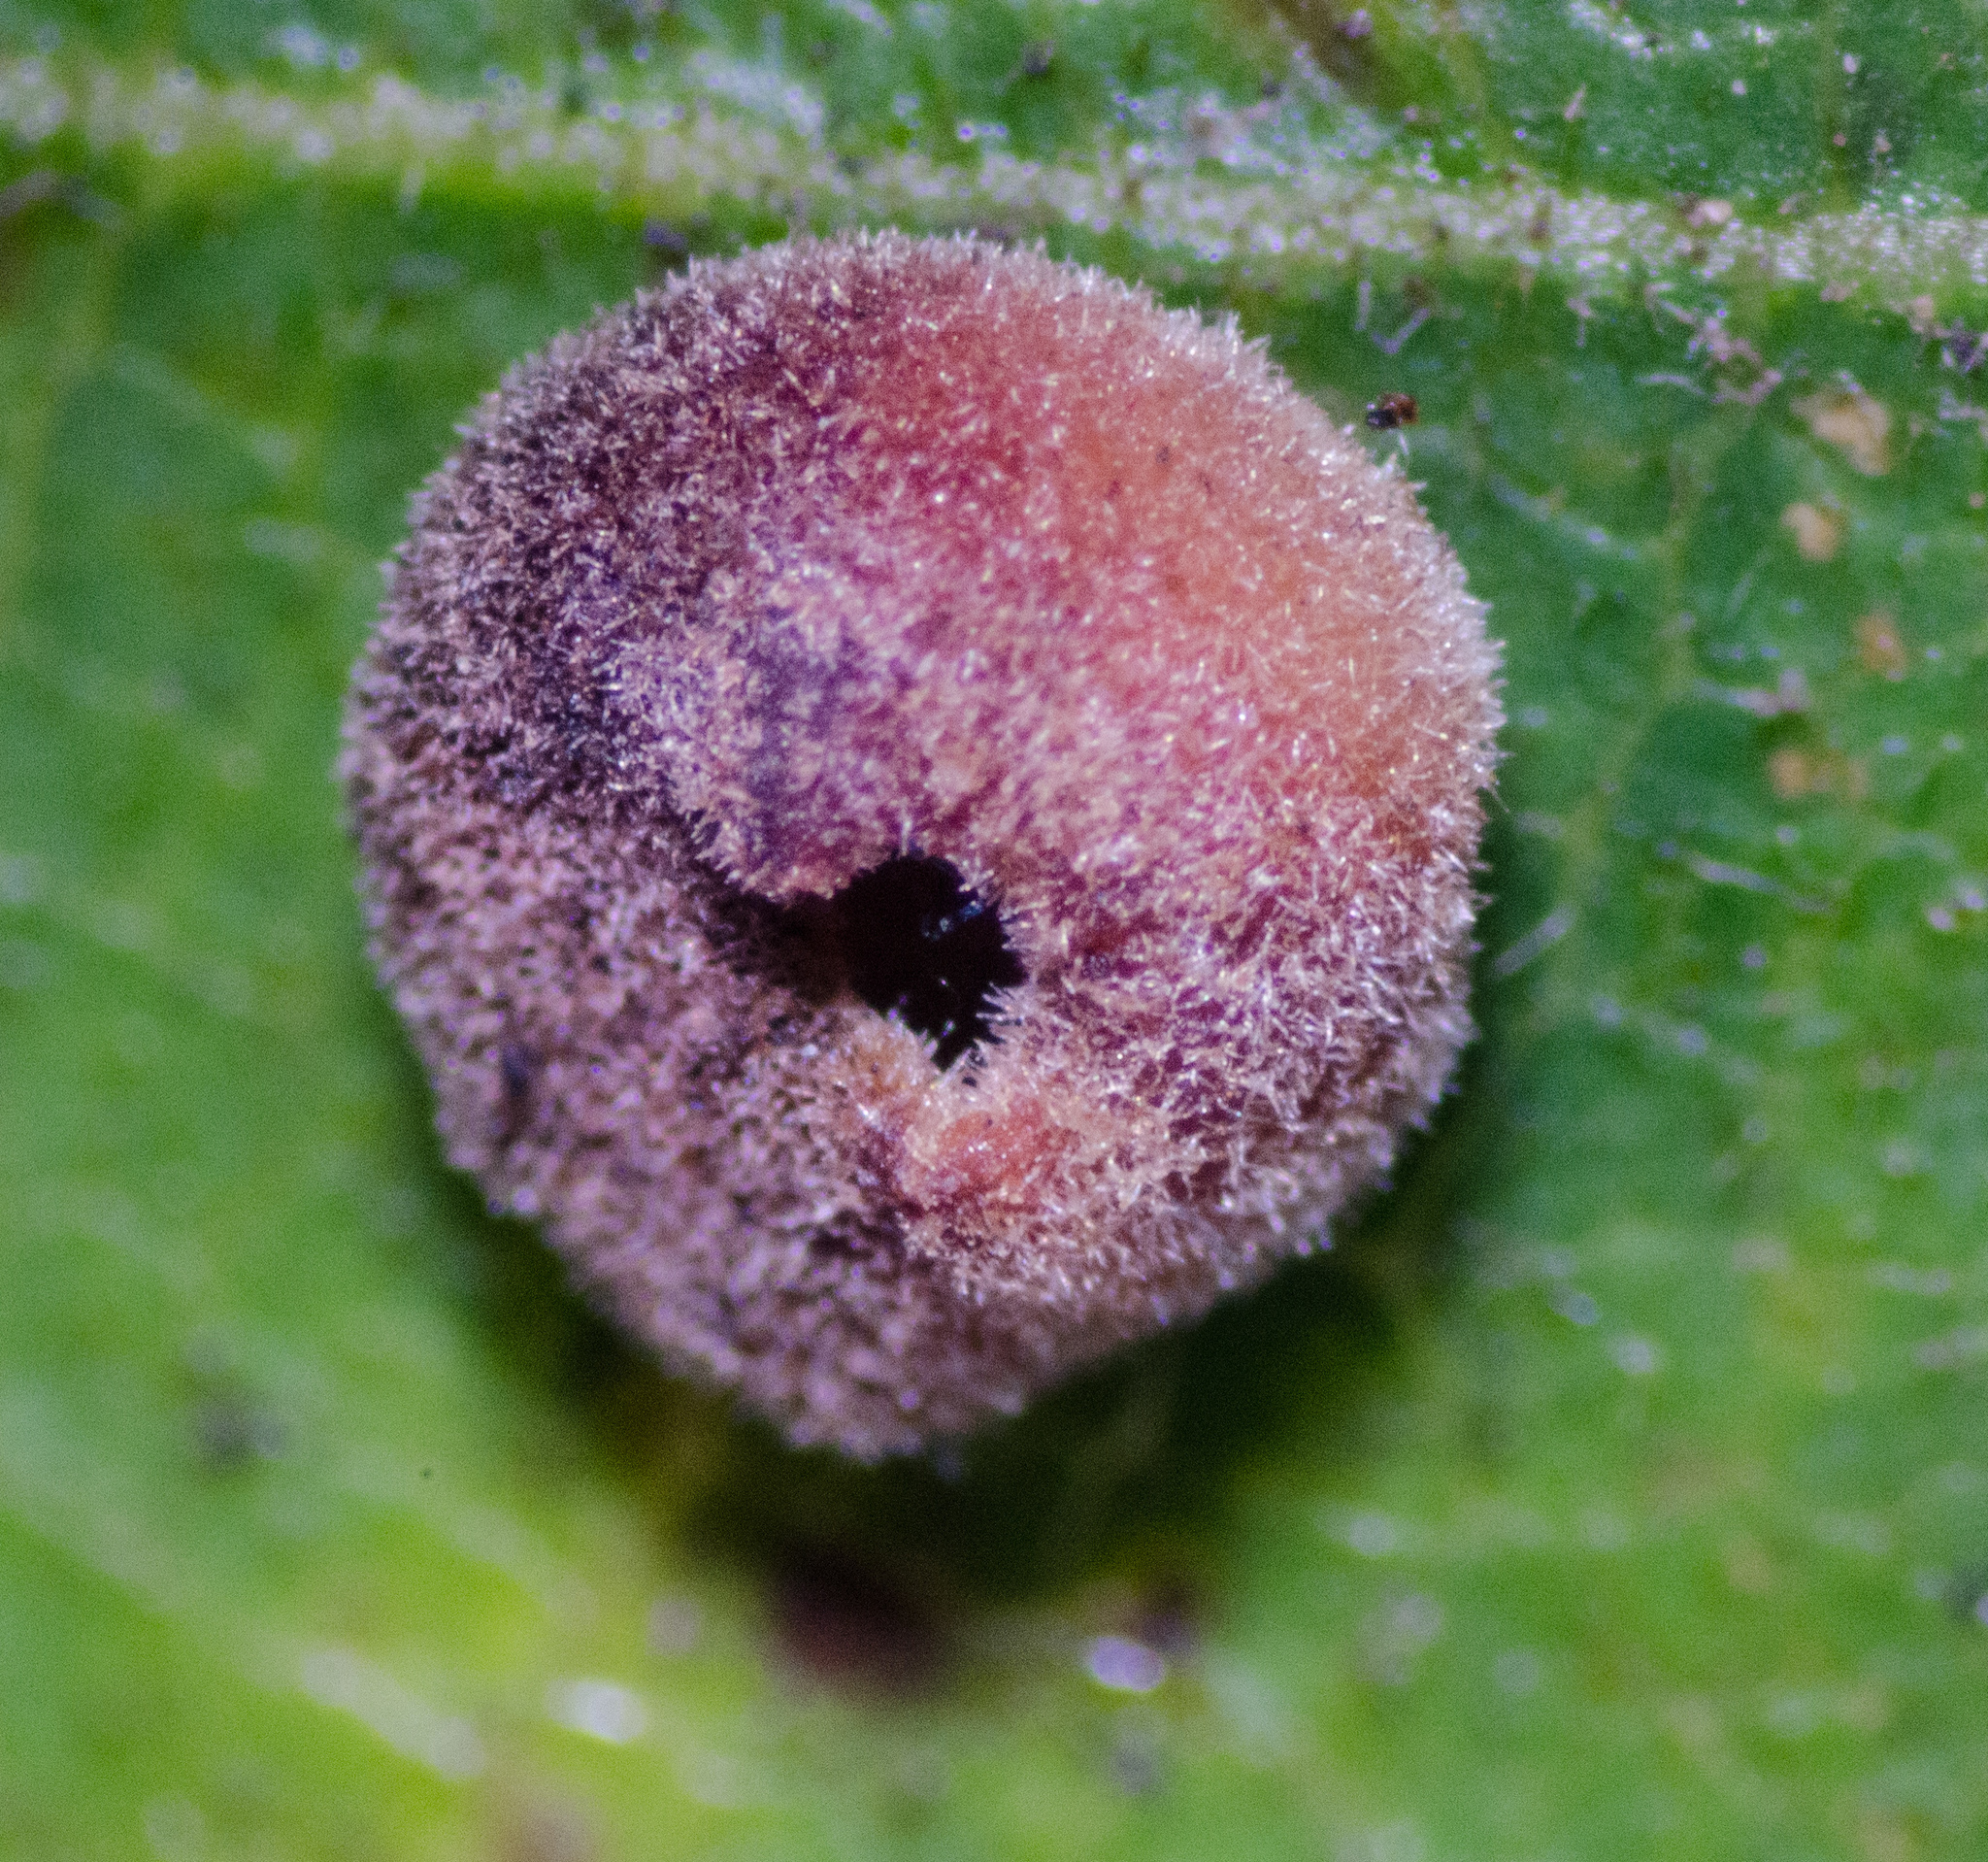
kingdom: Animalia
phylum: Arthropoda
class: Insecta
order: Hymenoptera
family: Cynipidae
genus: Andricus
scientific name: Andricus
